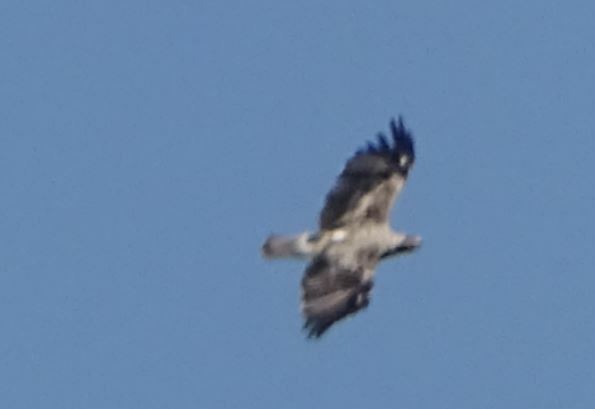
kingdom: Animalia
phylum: Chordata
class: Aves
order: Accipitriformes
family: Accipitridae
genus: Aquila
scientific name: Aquila heliaca
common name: Eastern imperial eagle
